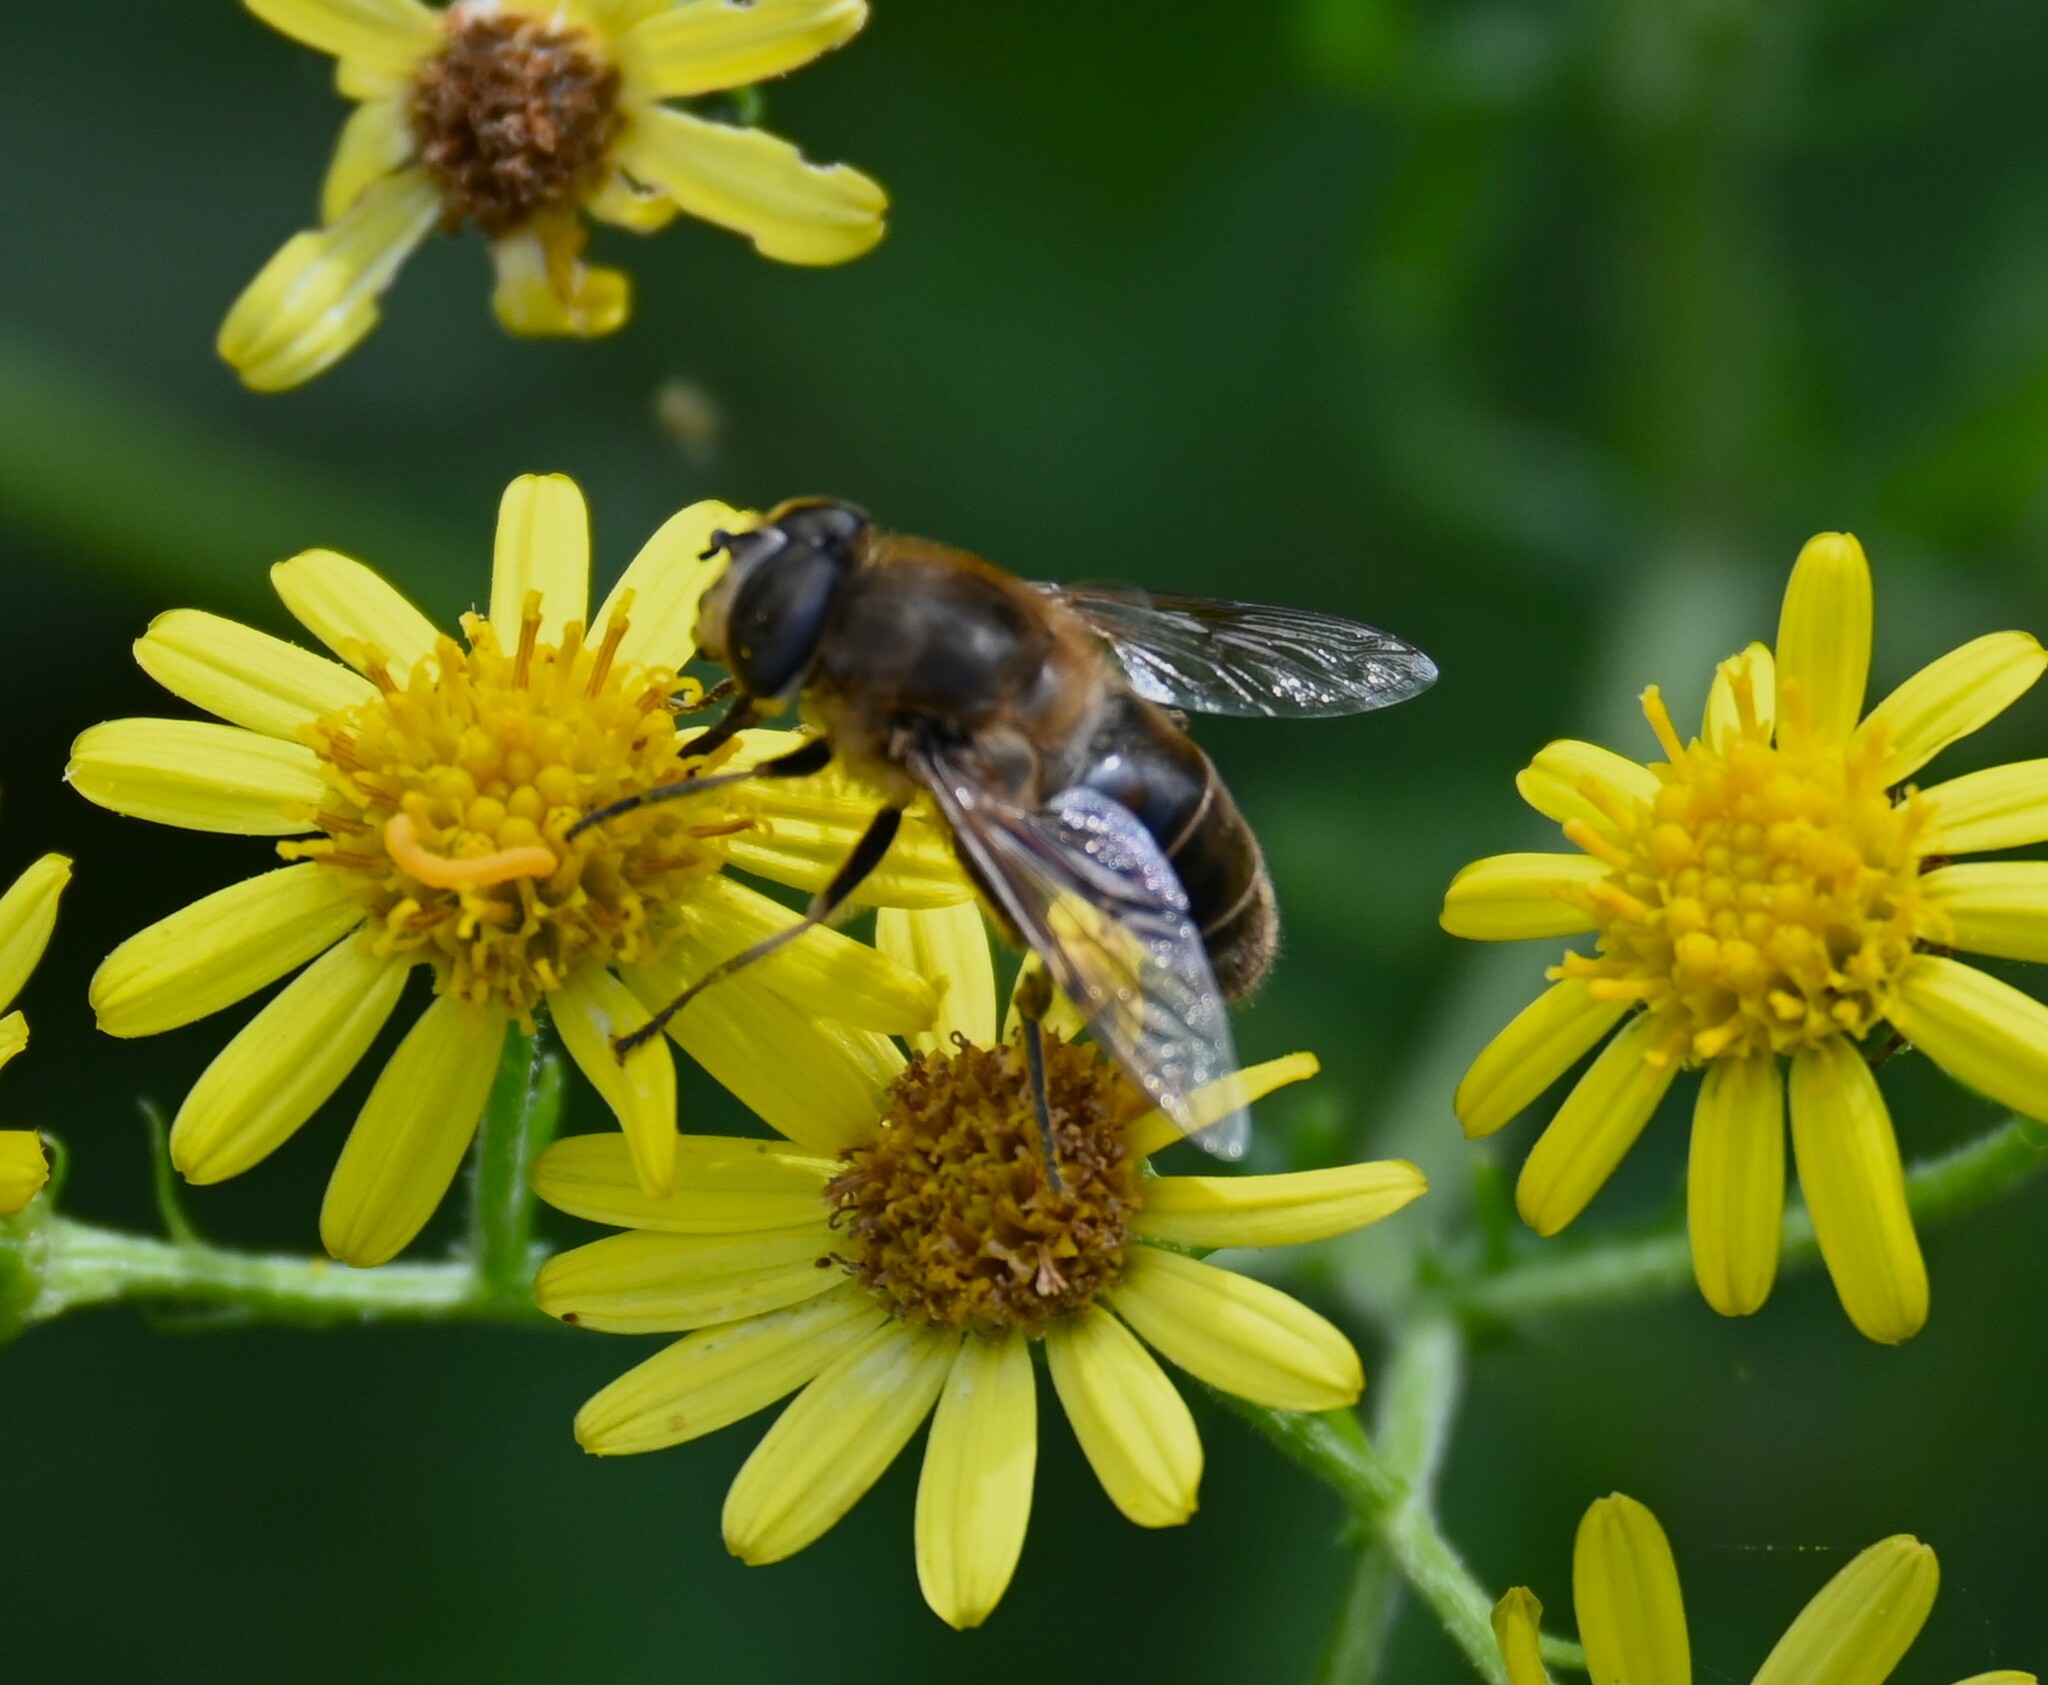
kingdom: Animalia
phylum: Arthropoda
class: Insecta
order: Diptera
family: Syrphidae
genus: Eristalis
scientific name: Eristalis tenax
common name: Drone fly
